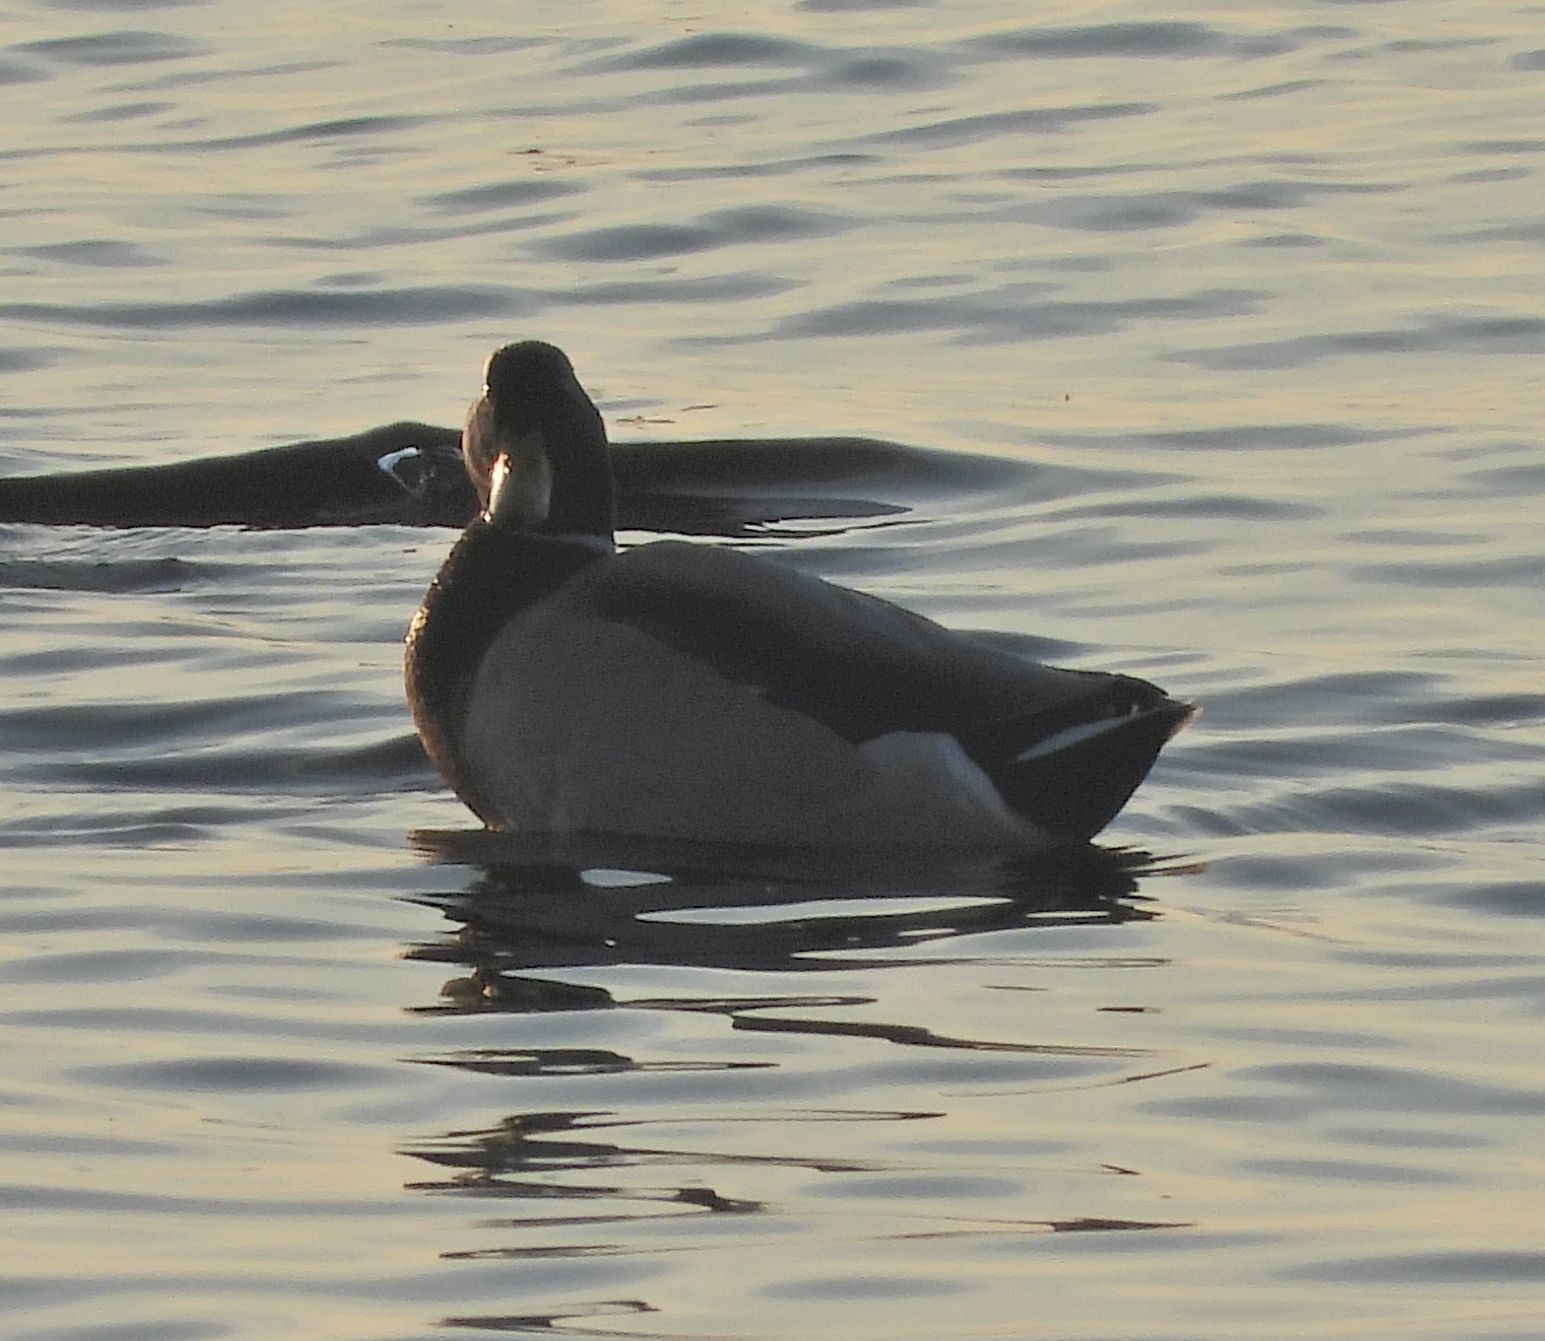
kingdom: Animalia
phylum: Chordata
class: Aves
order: Anseriformes
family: Anatidae
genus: Anas
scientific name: Anas platyrhynchos
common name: Mallard
